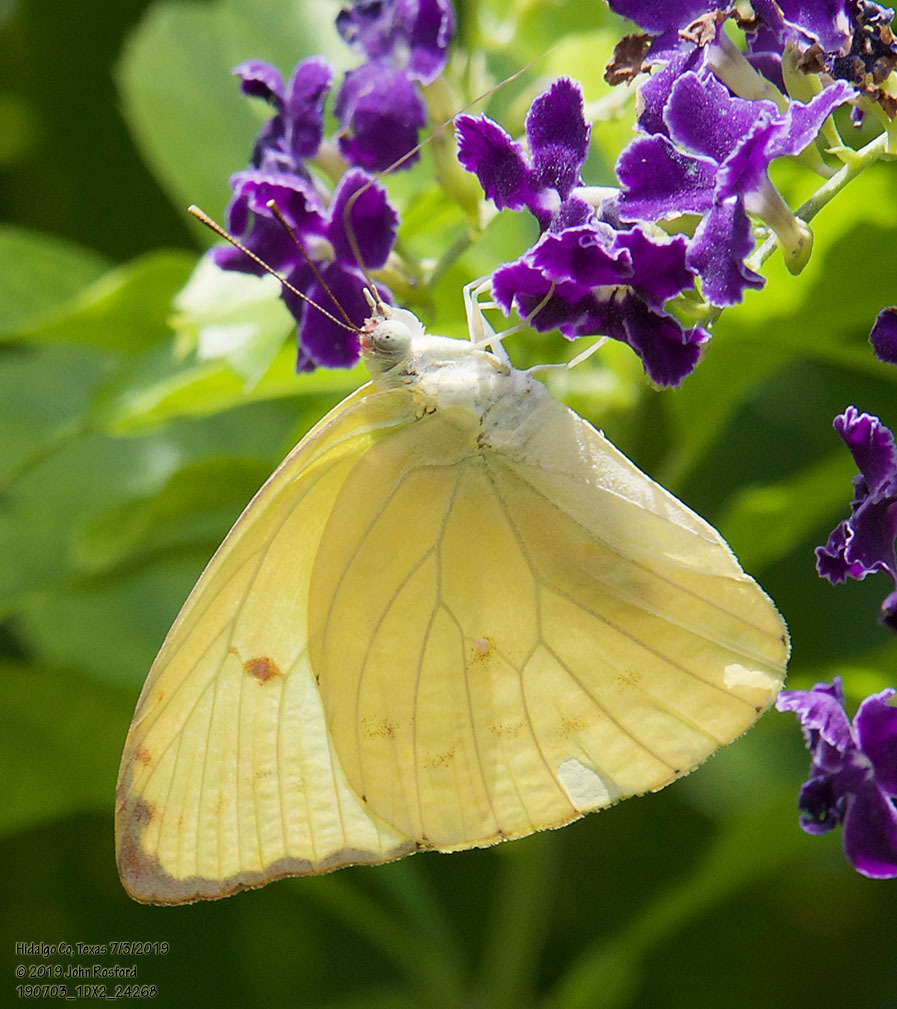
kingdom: Animalia
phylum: Arthropoda
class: Insecta
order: Lepidoptera
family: Pieridae
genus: Aphrissa
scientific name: Aphrissa statira
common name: Statira sulphur
